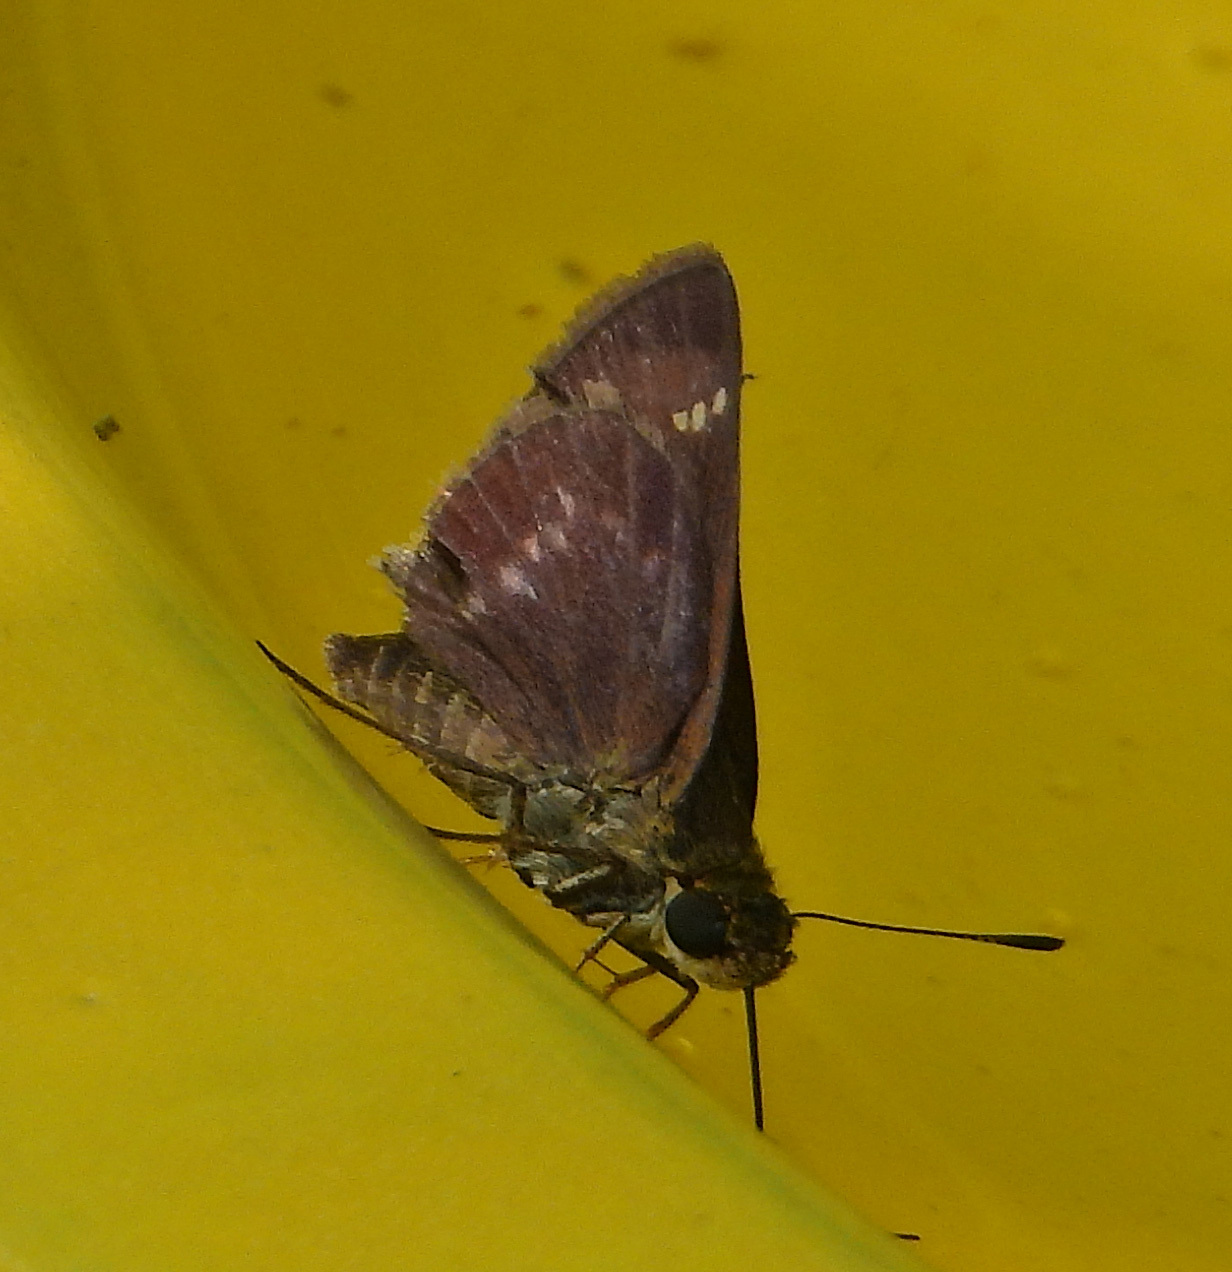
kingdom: Animalia
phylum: Arthropoda
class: Insecta
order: Lepidoptera
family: Hesperiidae
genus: Vernia
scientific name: Vernia verna
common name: Little glassywing
